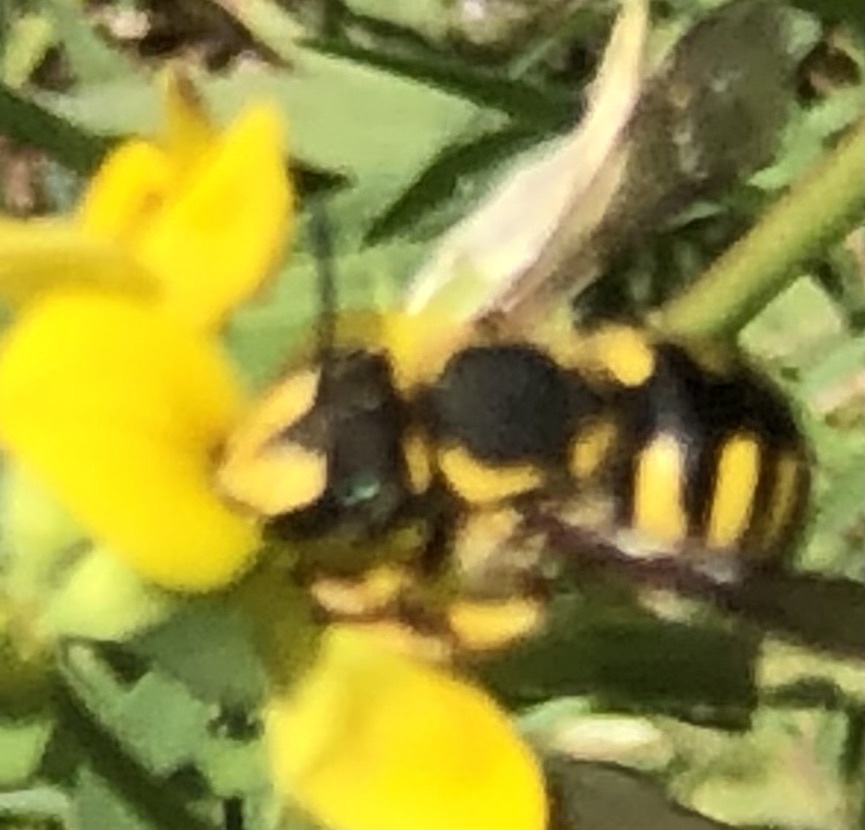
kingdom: Animalia
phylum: Arthropoda
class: Insecta
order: Hymenoptera
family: Megachilidae
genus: Anthidium
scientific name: Anthidium florentinum
